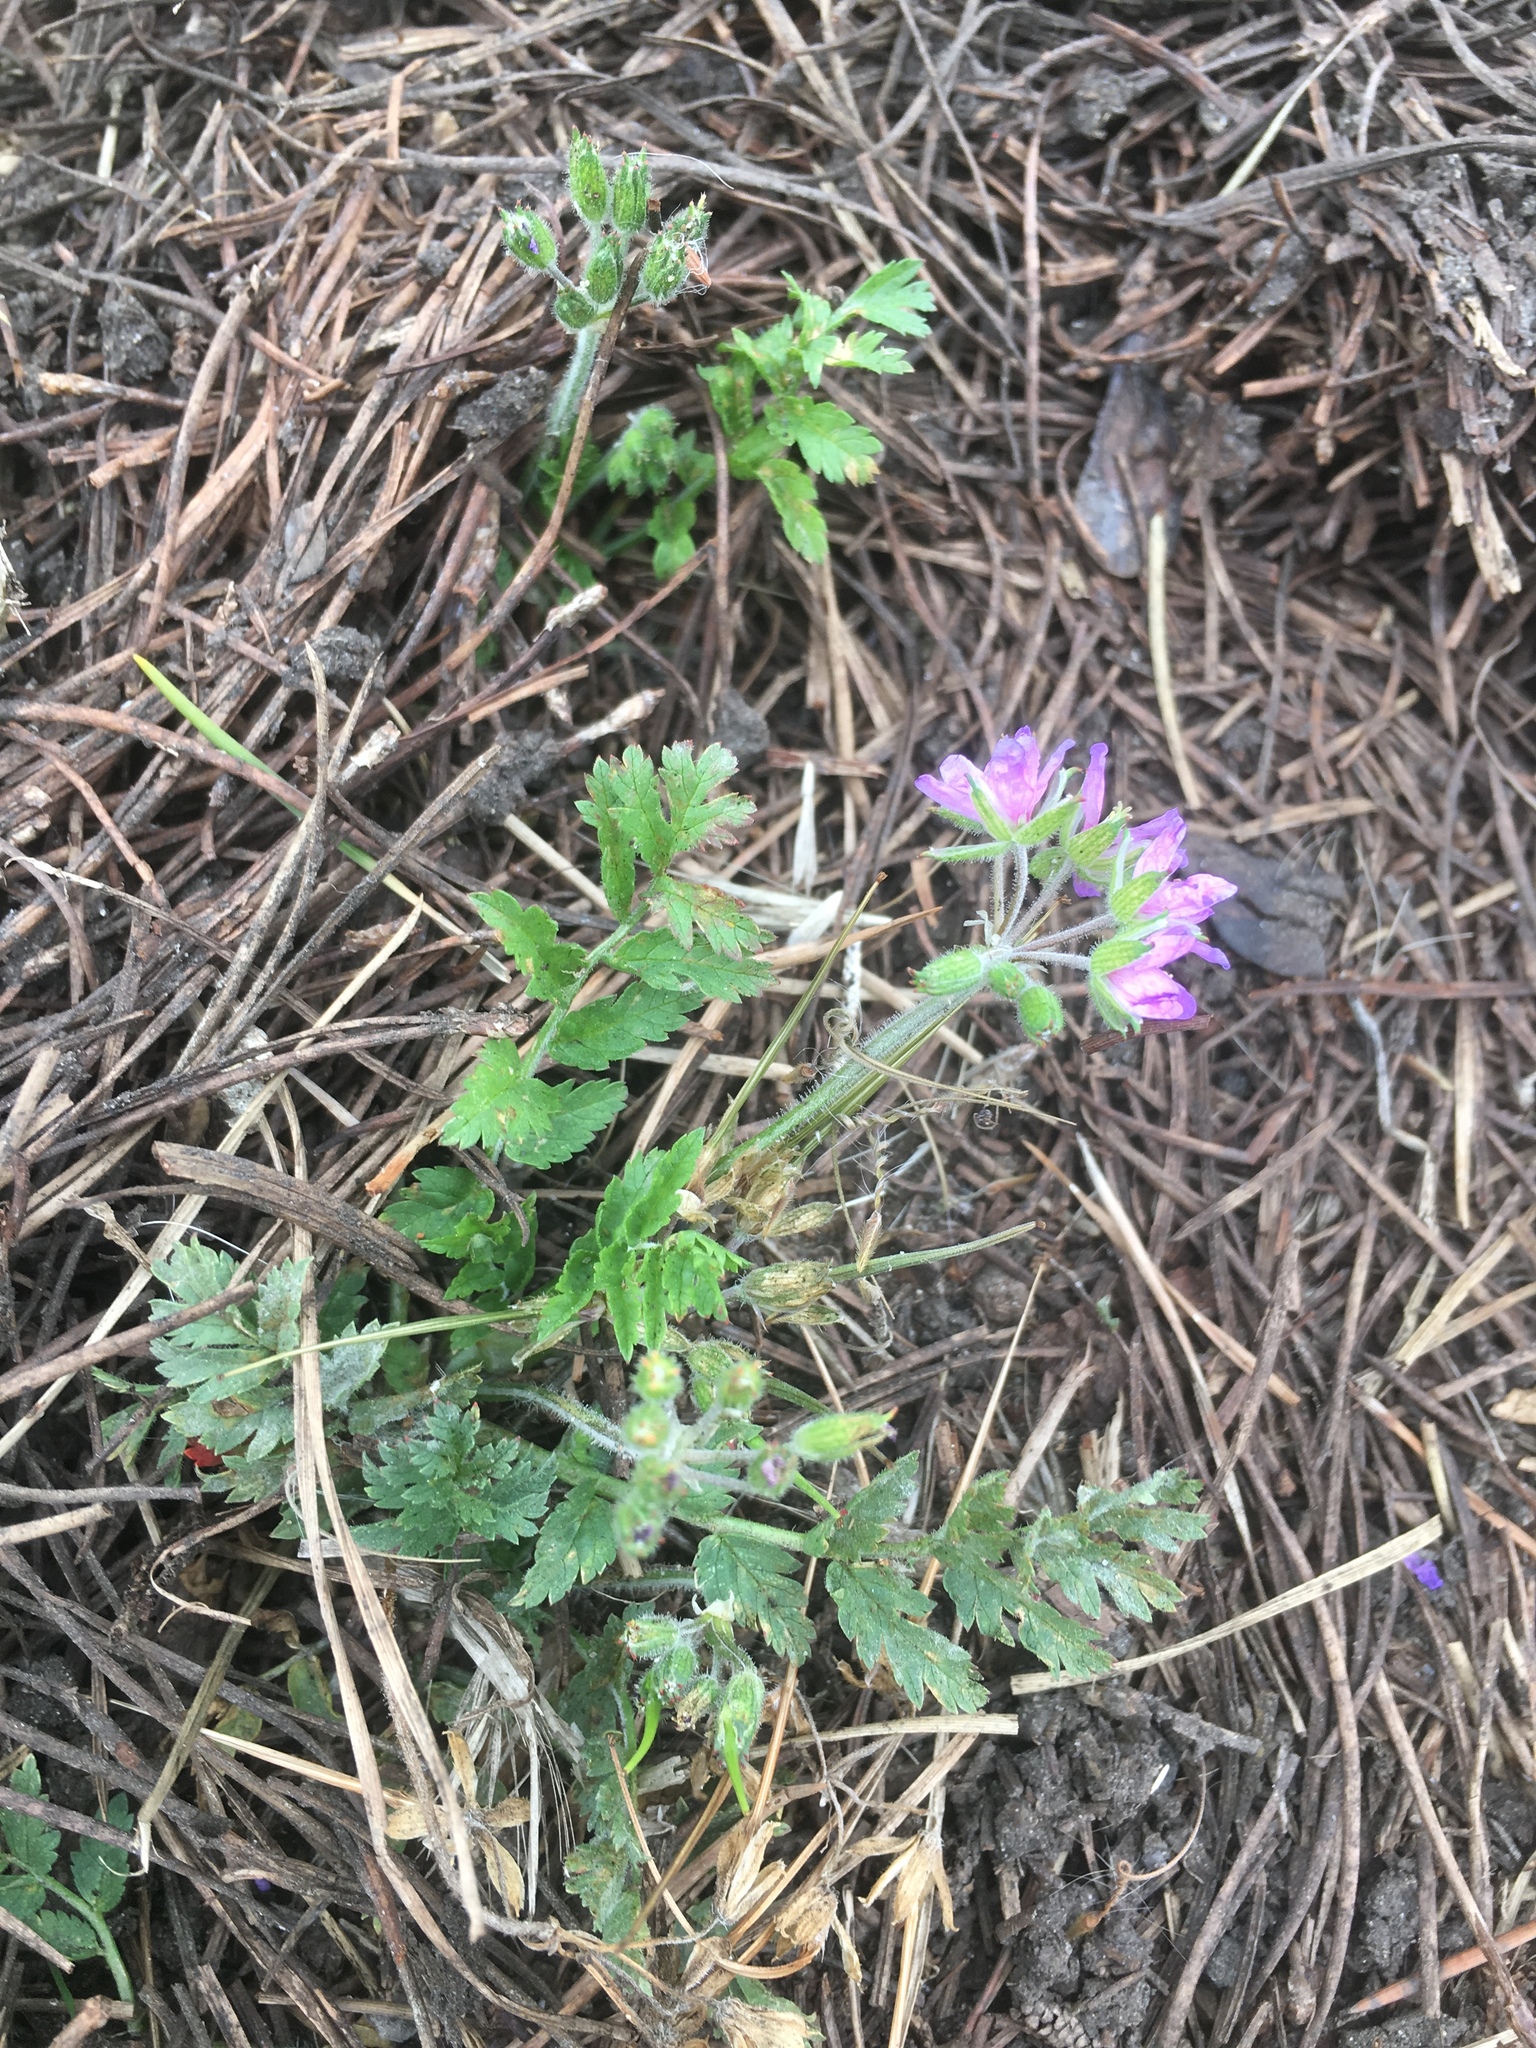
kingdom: Plantae
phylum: Tracheophyta
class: Magnoliopsida
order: Geraniales
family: Geraniaceae
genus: Erodium
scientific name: Erodium moschatum
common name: Musk stork's-bill
